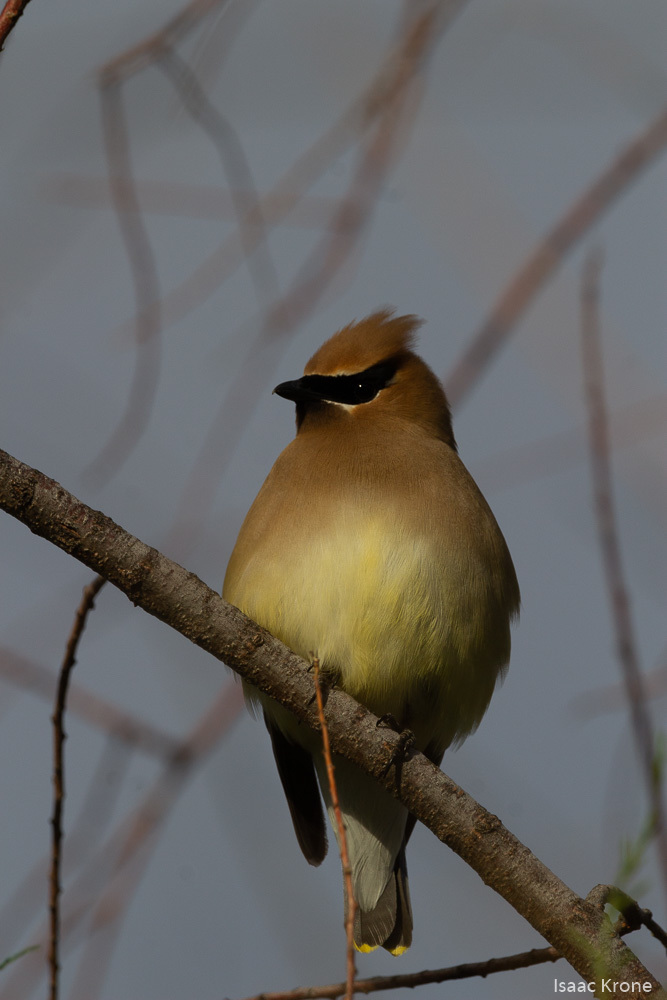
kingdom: Animalia
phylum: Chordata
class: Aves
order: Passeriformes
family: Bombycillidae
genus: Bombycilla
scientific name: Bombycilla cedrorum
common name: Cedar waxwing
